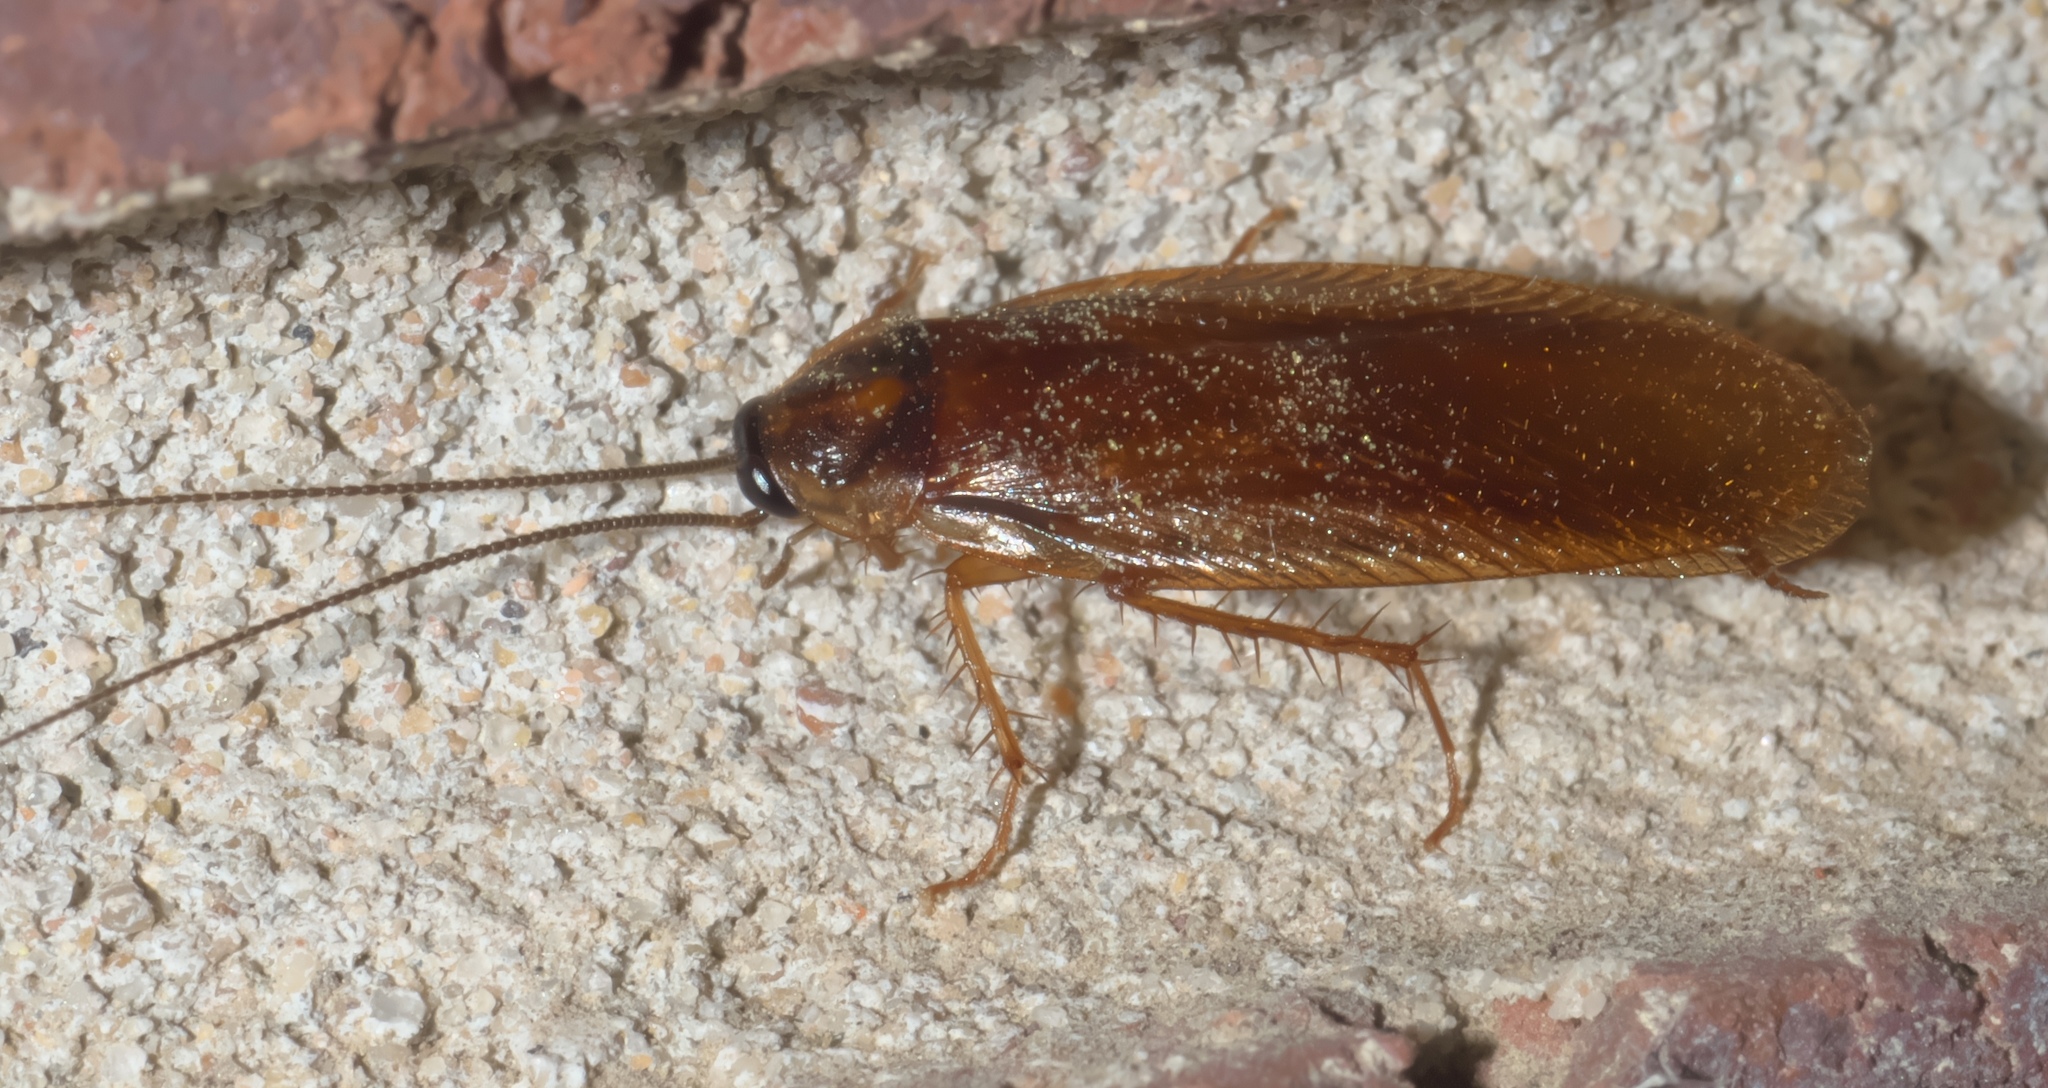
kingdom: Animalia
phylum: Arthropoda
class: Insecta
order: Blattodea
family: Ectobiidae
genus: Parcoblatta
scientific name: Parcoblatta bolliana
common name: Boll's wood cockroach
